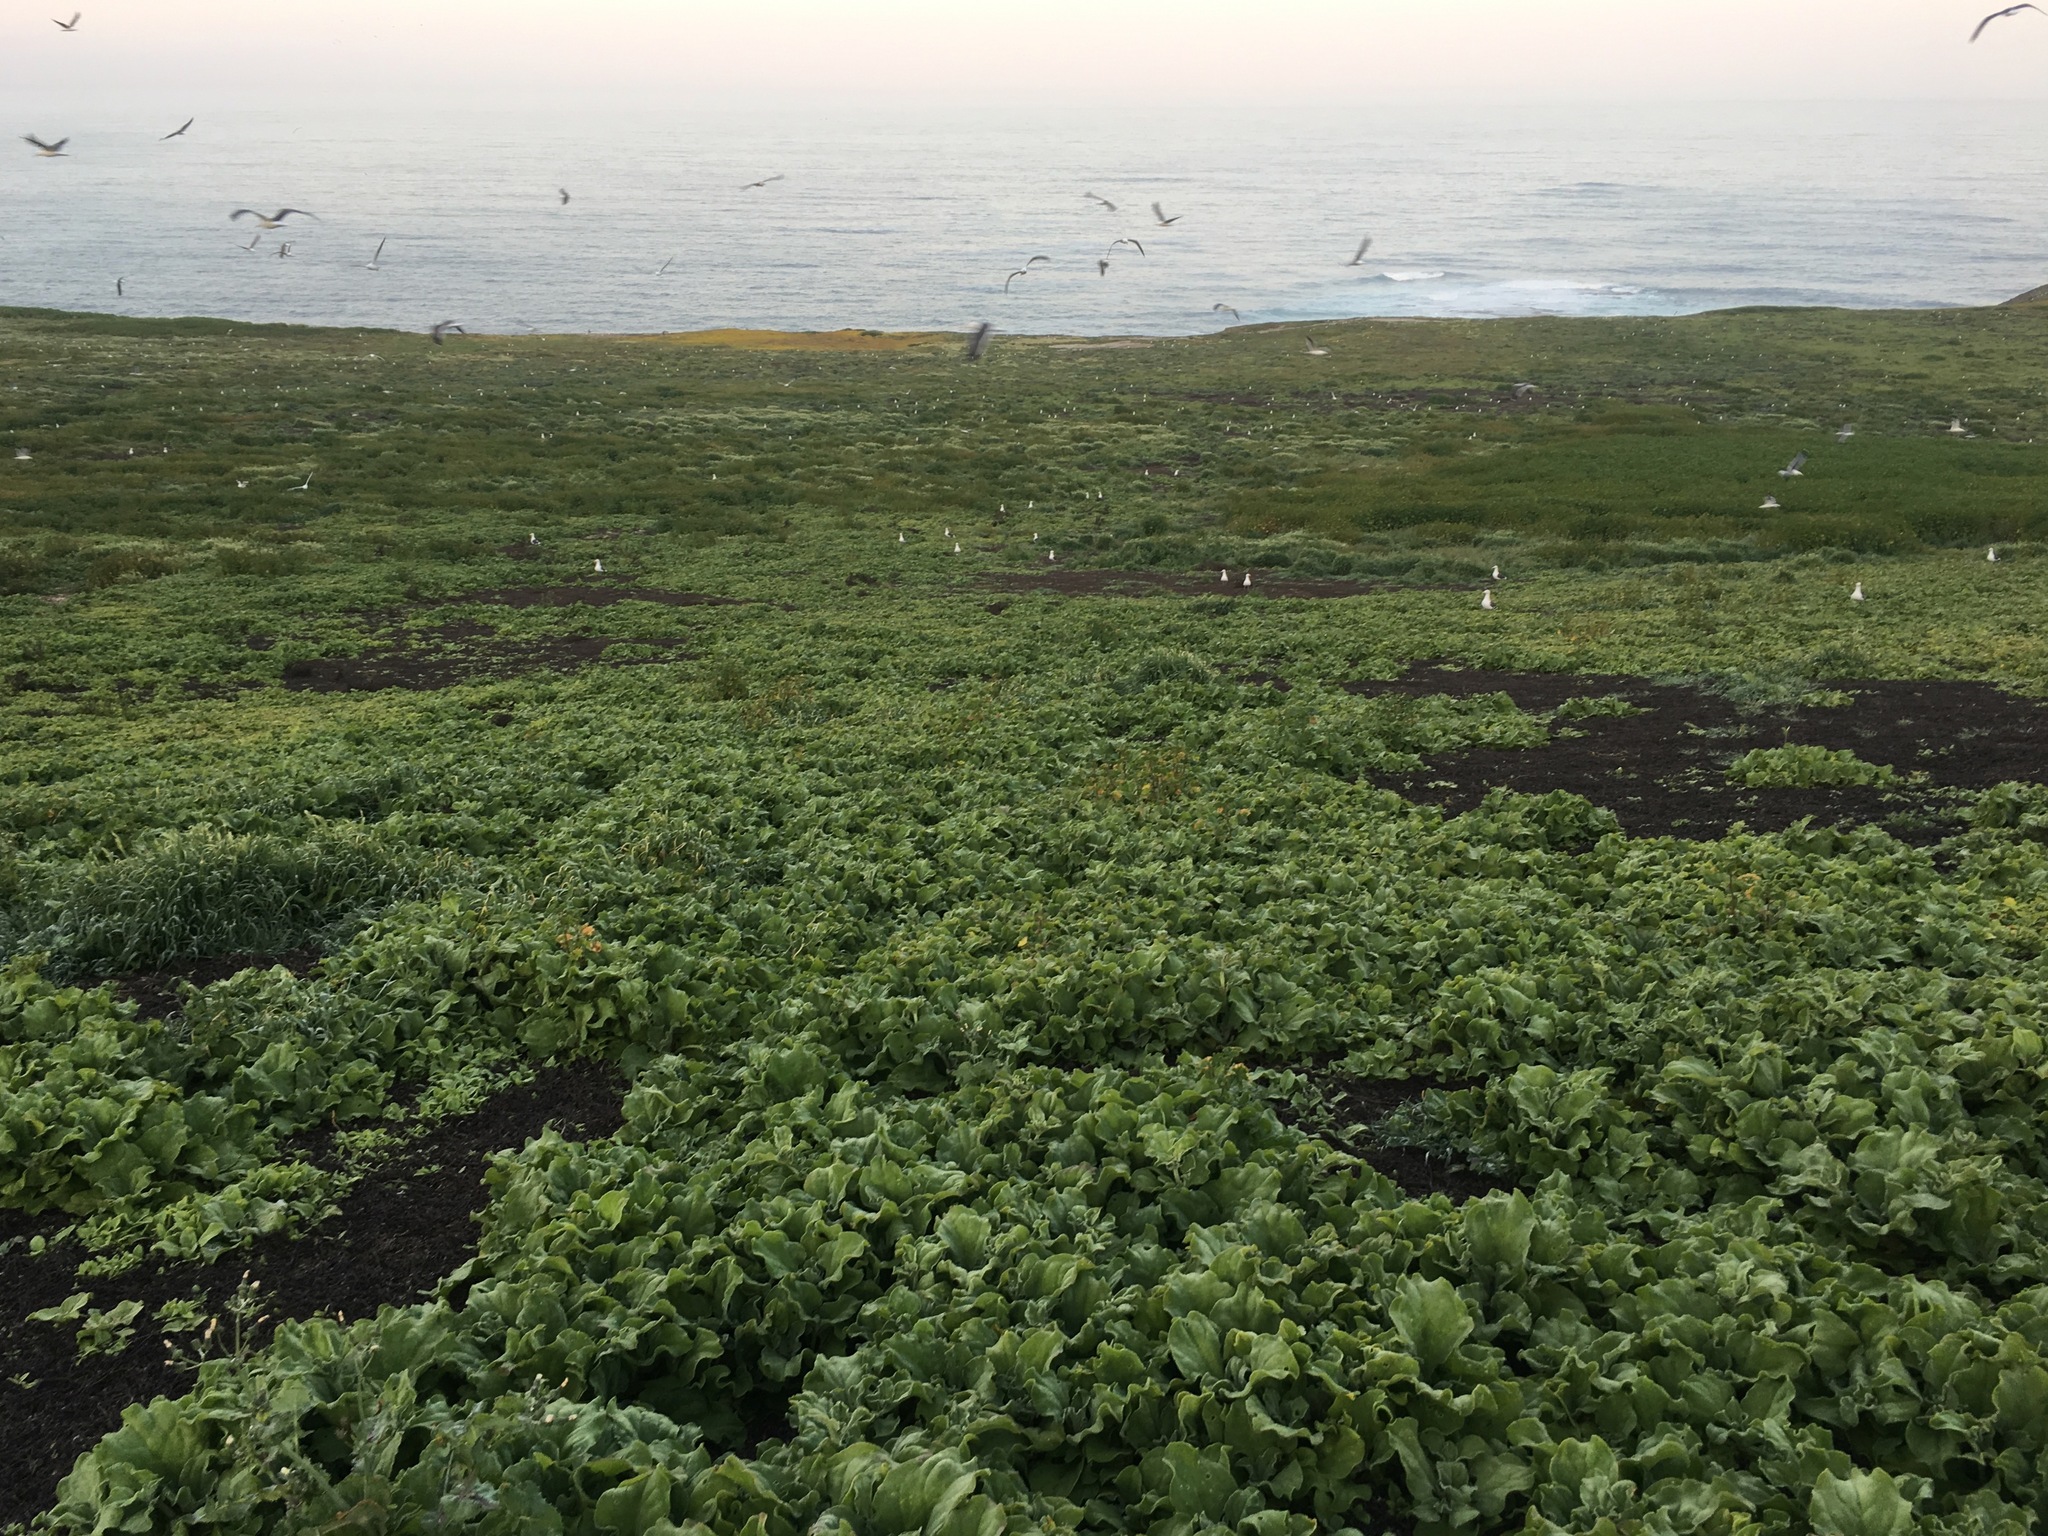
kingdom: Plantae
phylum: Tracheophyta
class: Magnoliopsida
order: Caryophyllales
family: Aizoaceae
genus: Mesembryanthemum
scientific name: Mesembryanthemum crystallinum
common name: Common iceplant
